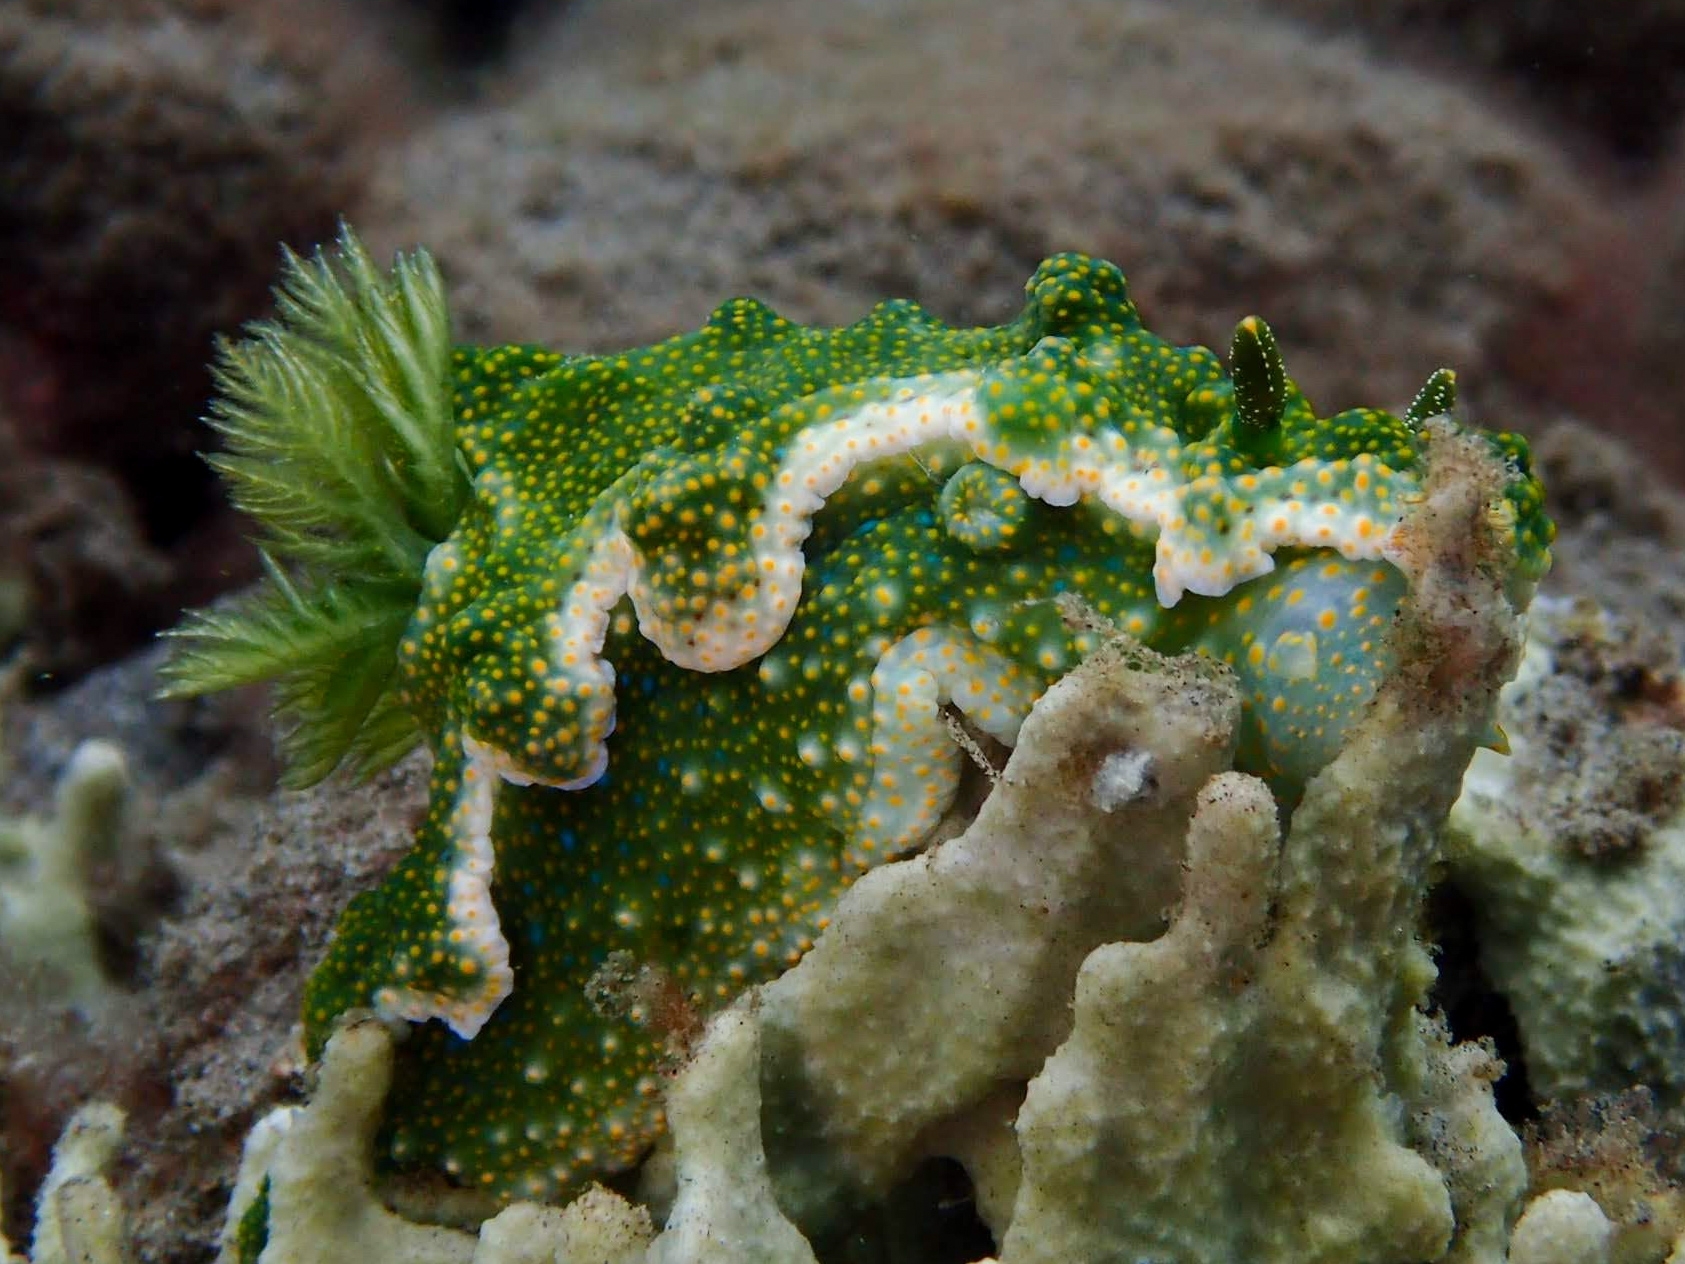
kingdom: Animalia
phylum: Mollusca
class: Gastropoda
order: Nudibranchia
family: Chromodorididae
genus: Miamira
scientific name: Miamira sinuata
